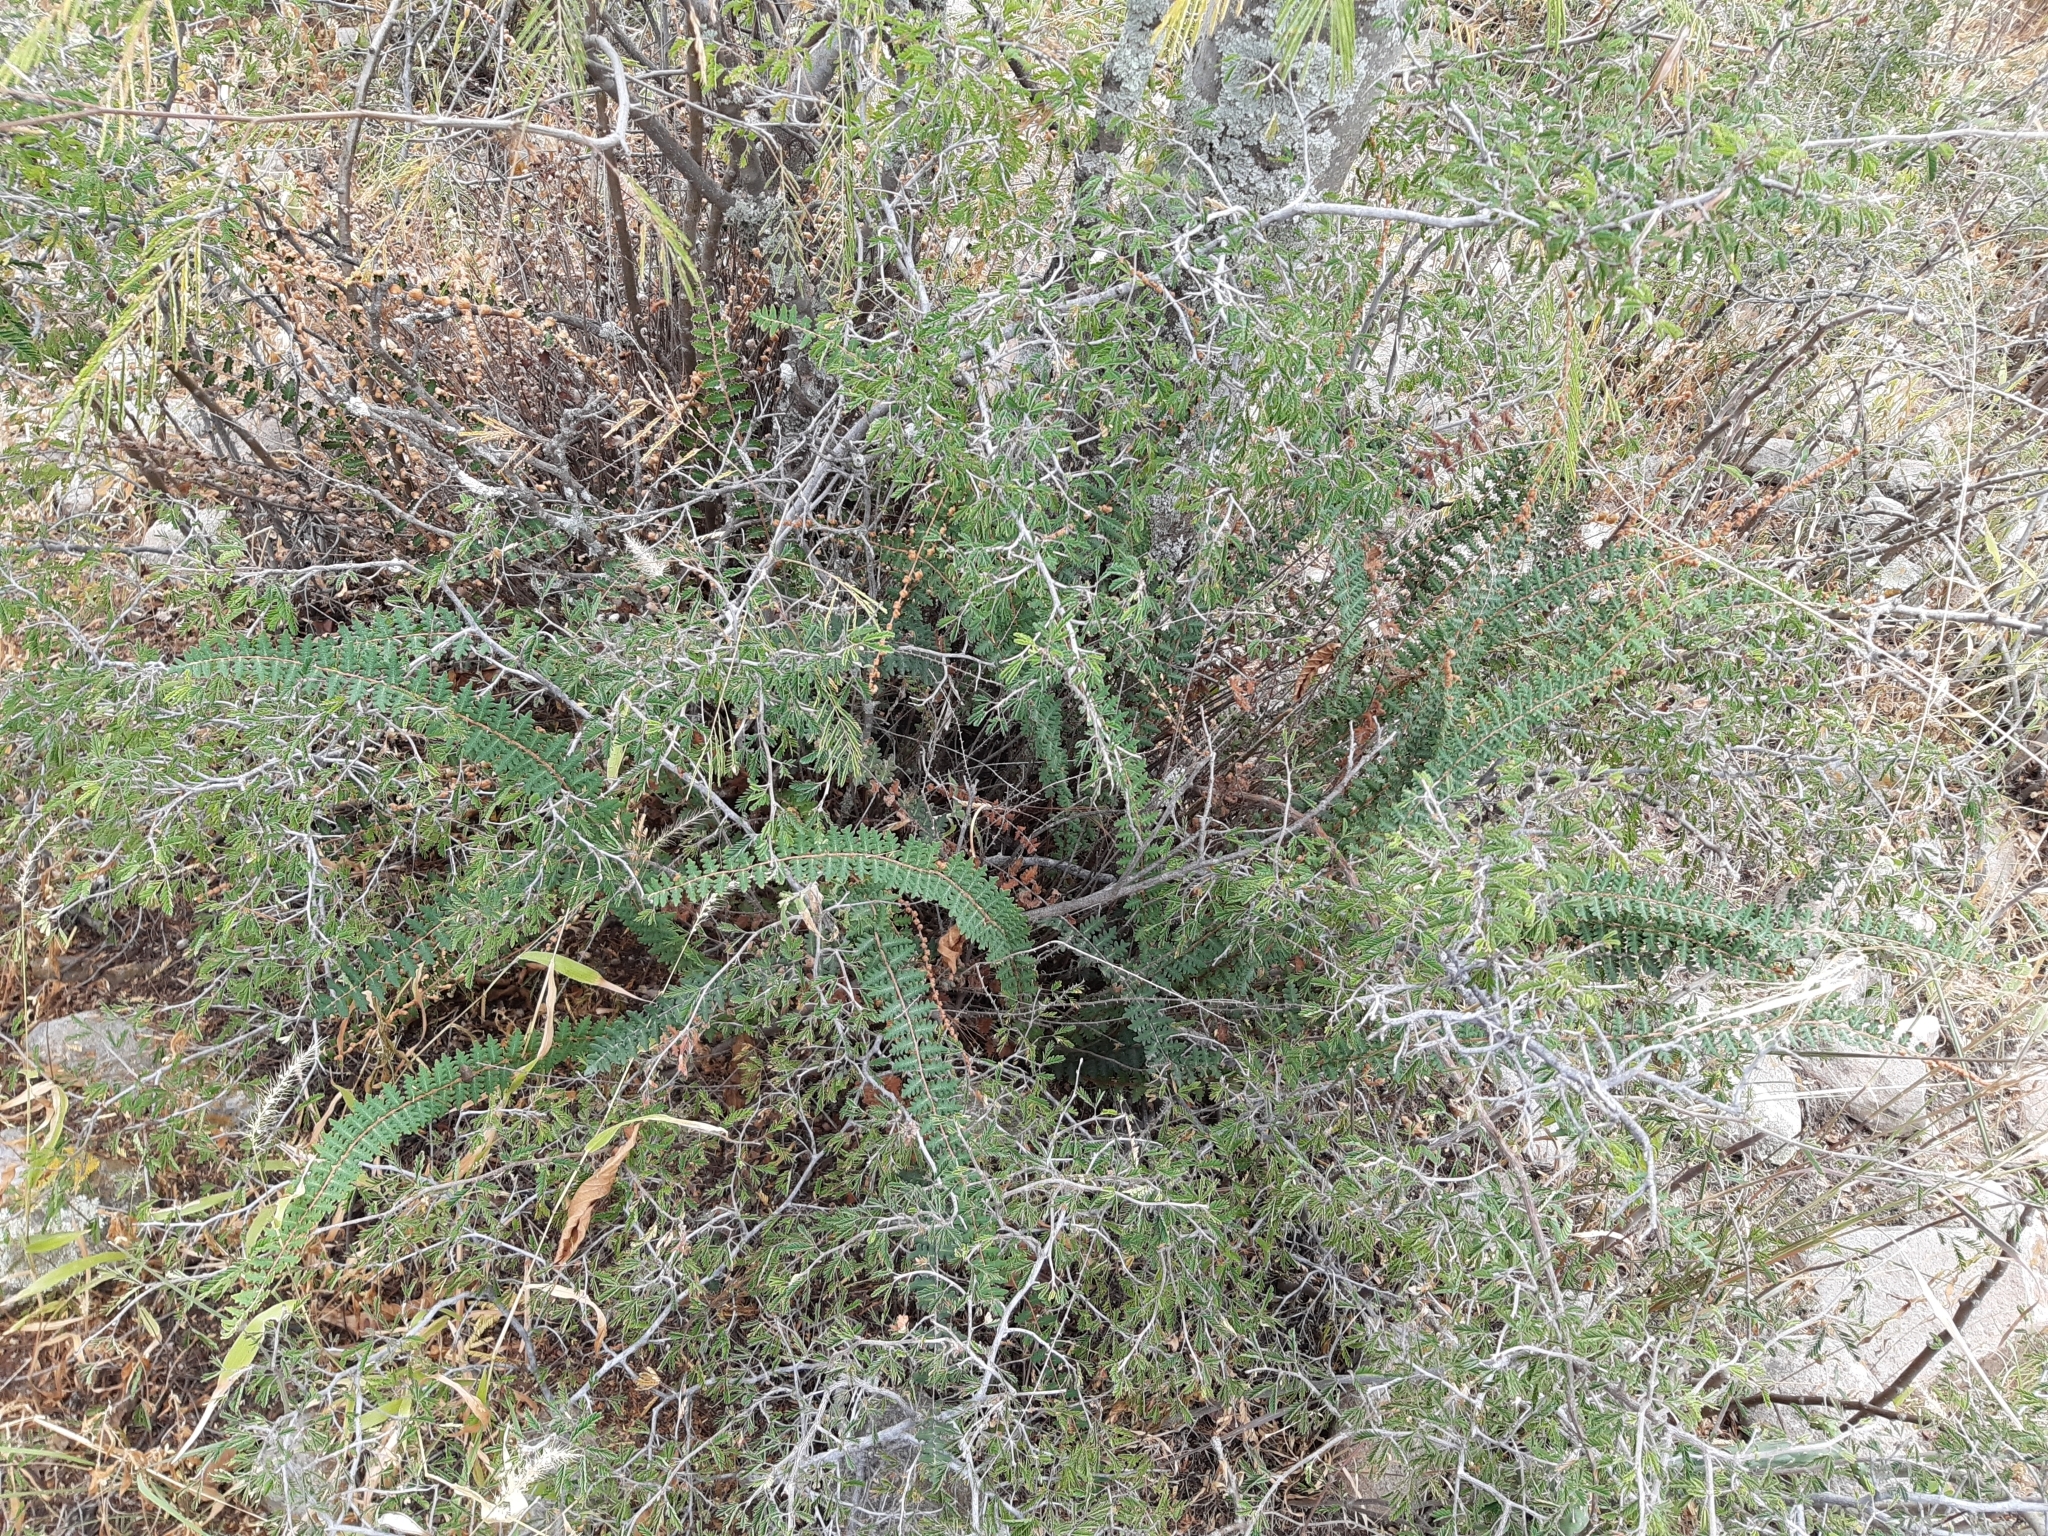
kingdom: Plantae
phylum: Tracheophyta
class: Polypodiopsida
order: Polypodiales
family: Pteridaceae
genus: Astrolepis
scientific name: Astrolepis sinuata
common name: Wavy scaly cloakfern
